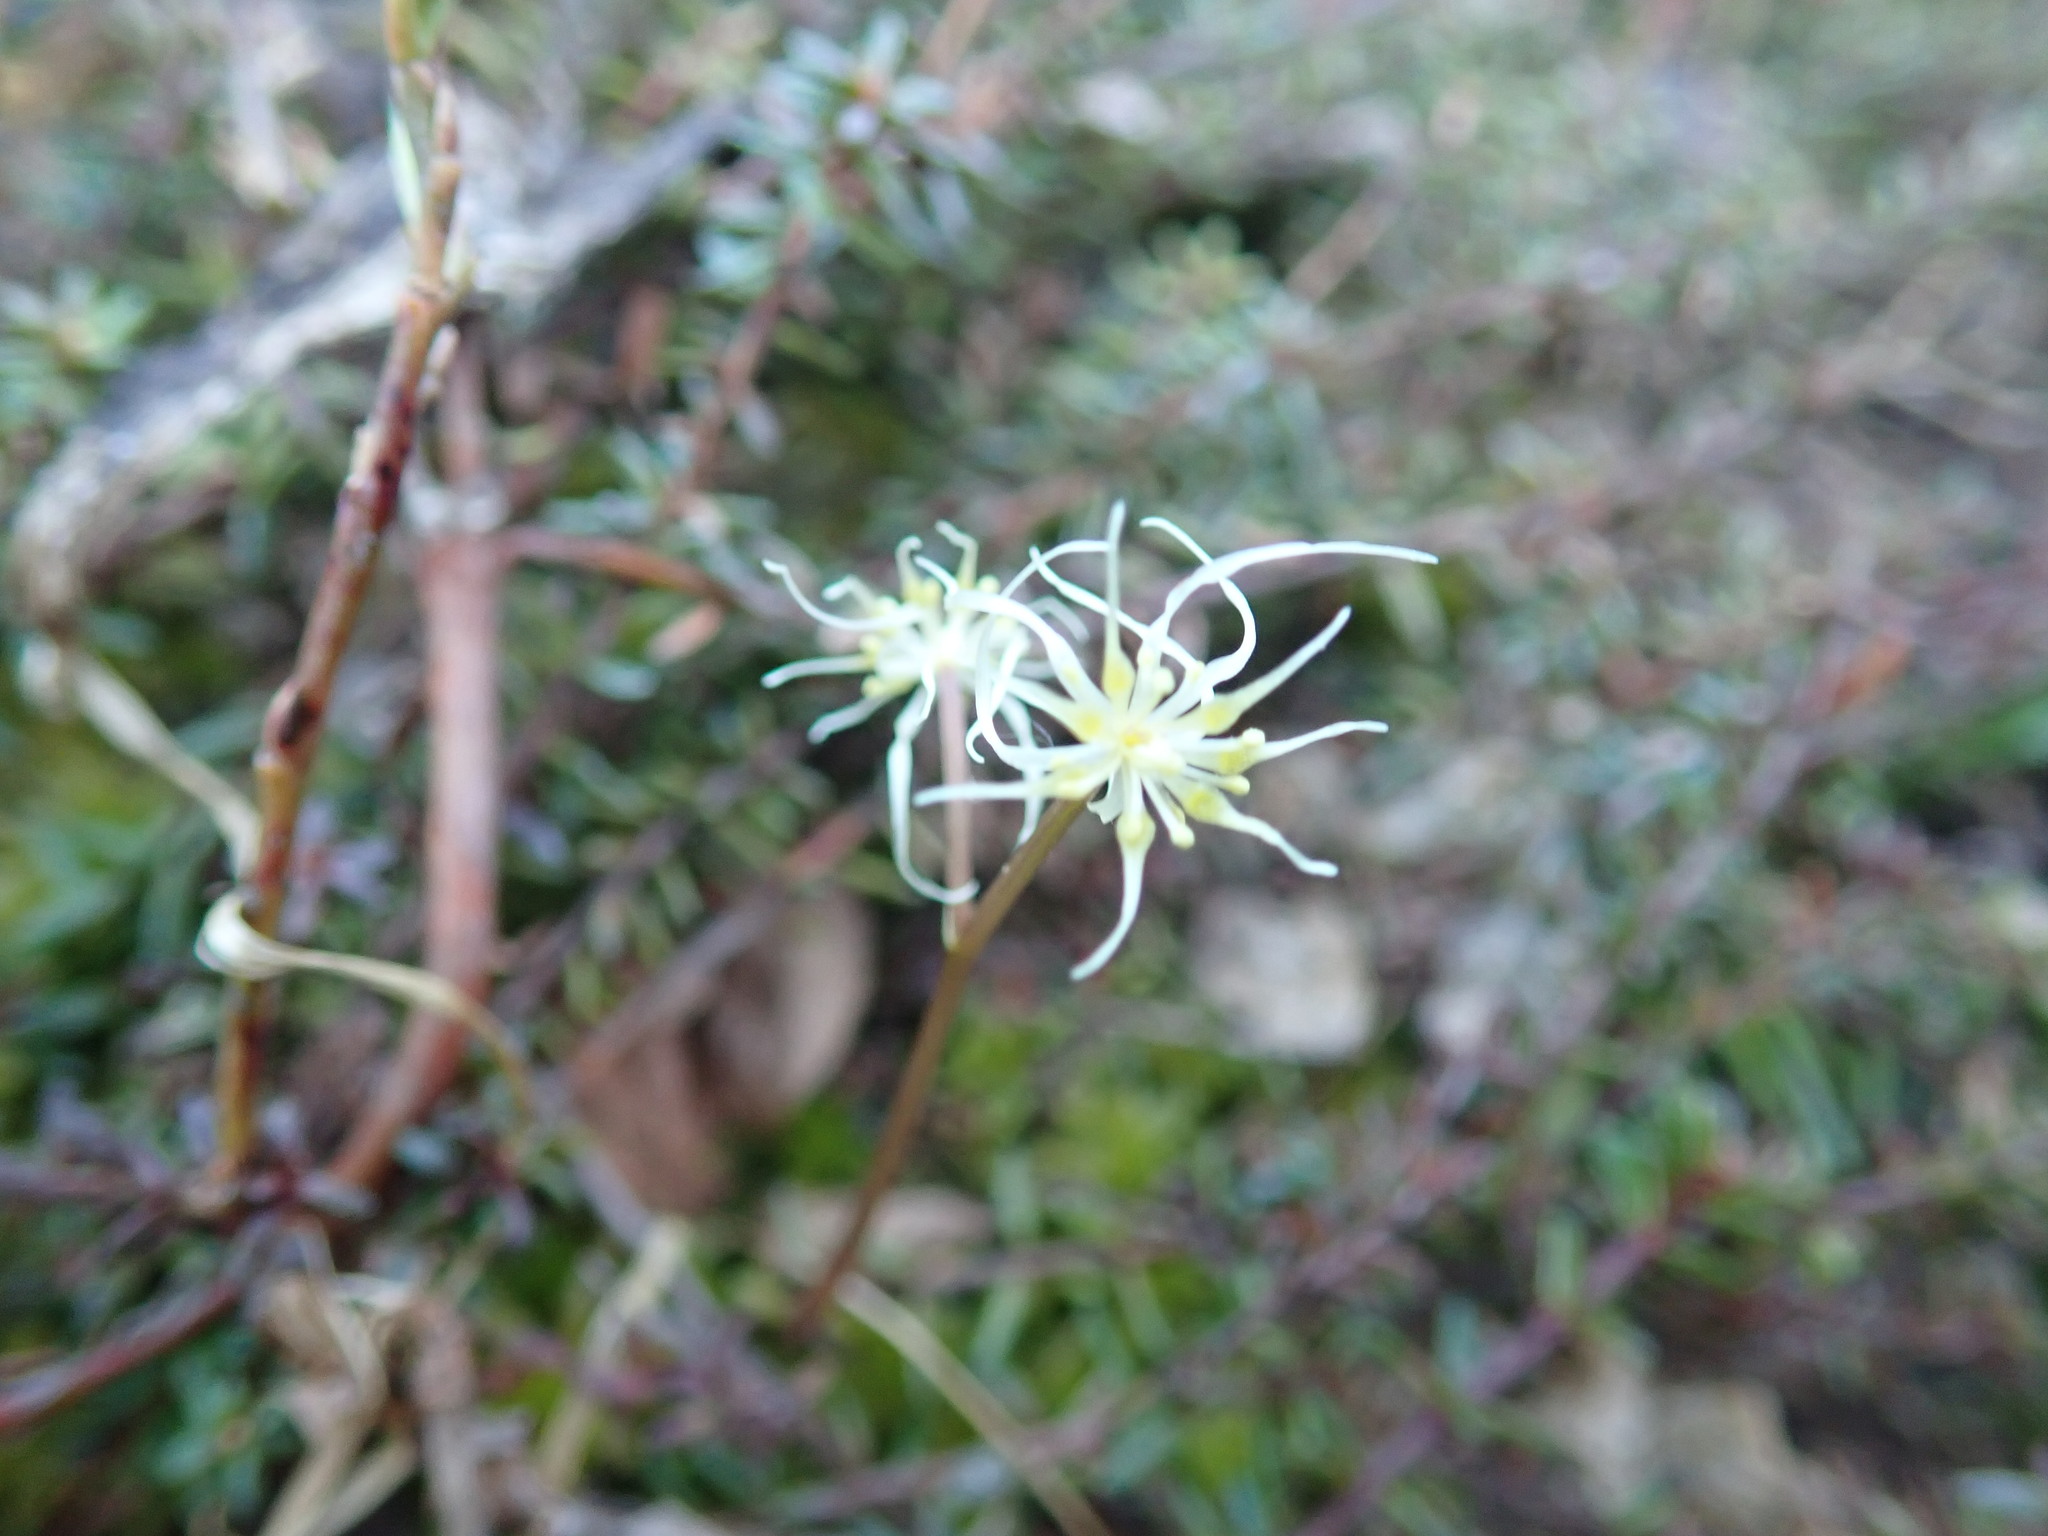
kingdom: Plantae
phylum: Tracheophyta
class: Magnoliopsida
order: Ranunculales
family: Ranunculaceae
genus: Coptis
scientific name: Coptis aspleniifolia
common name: Fern-leaved goldthread
